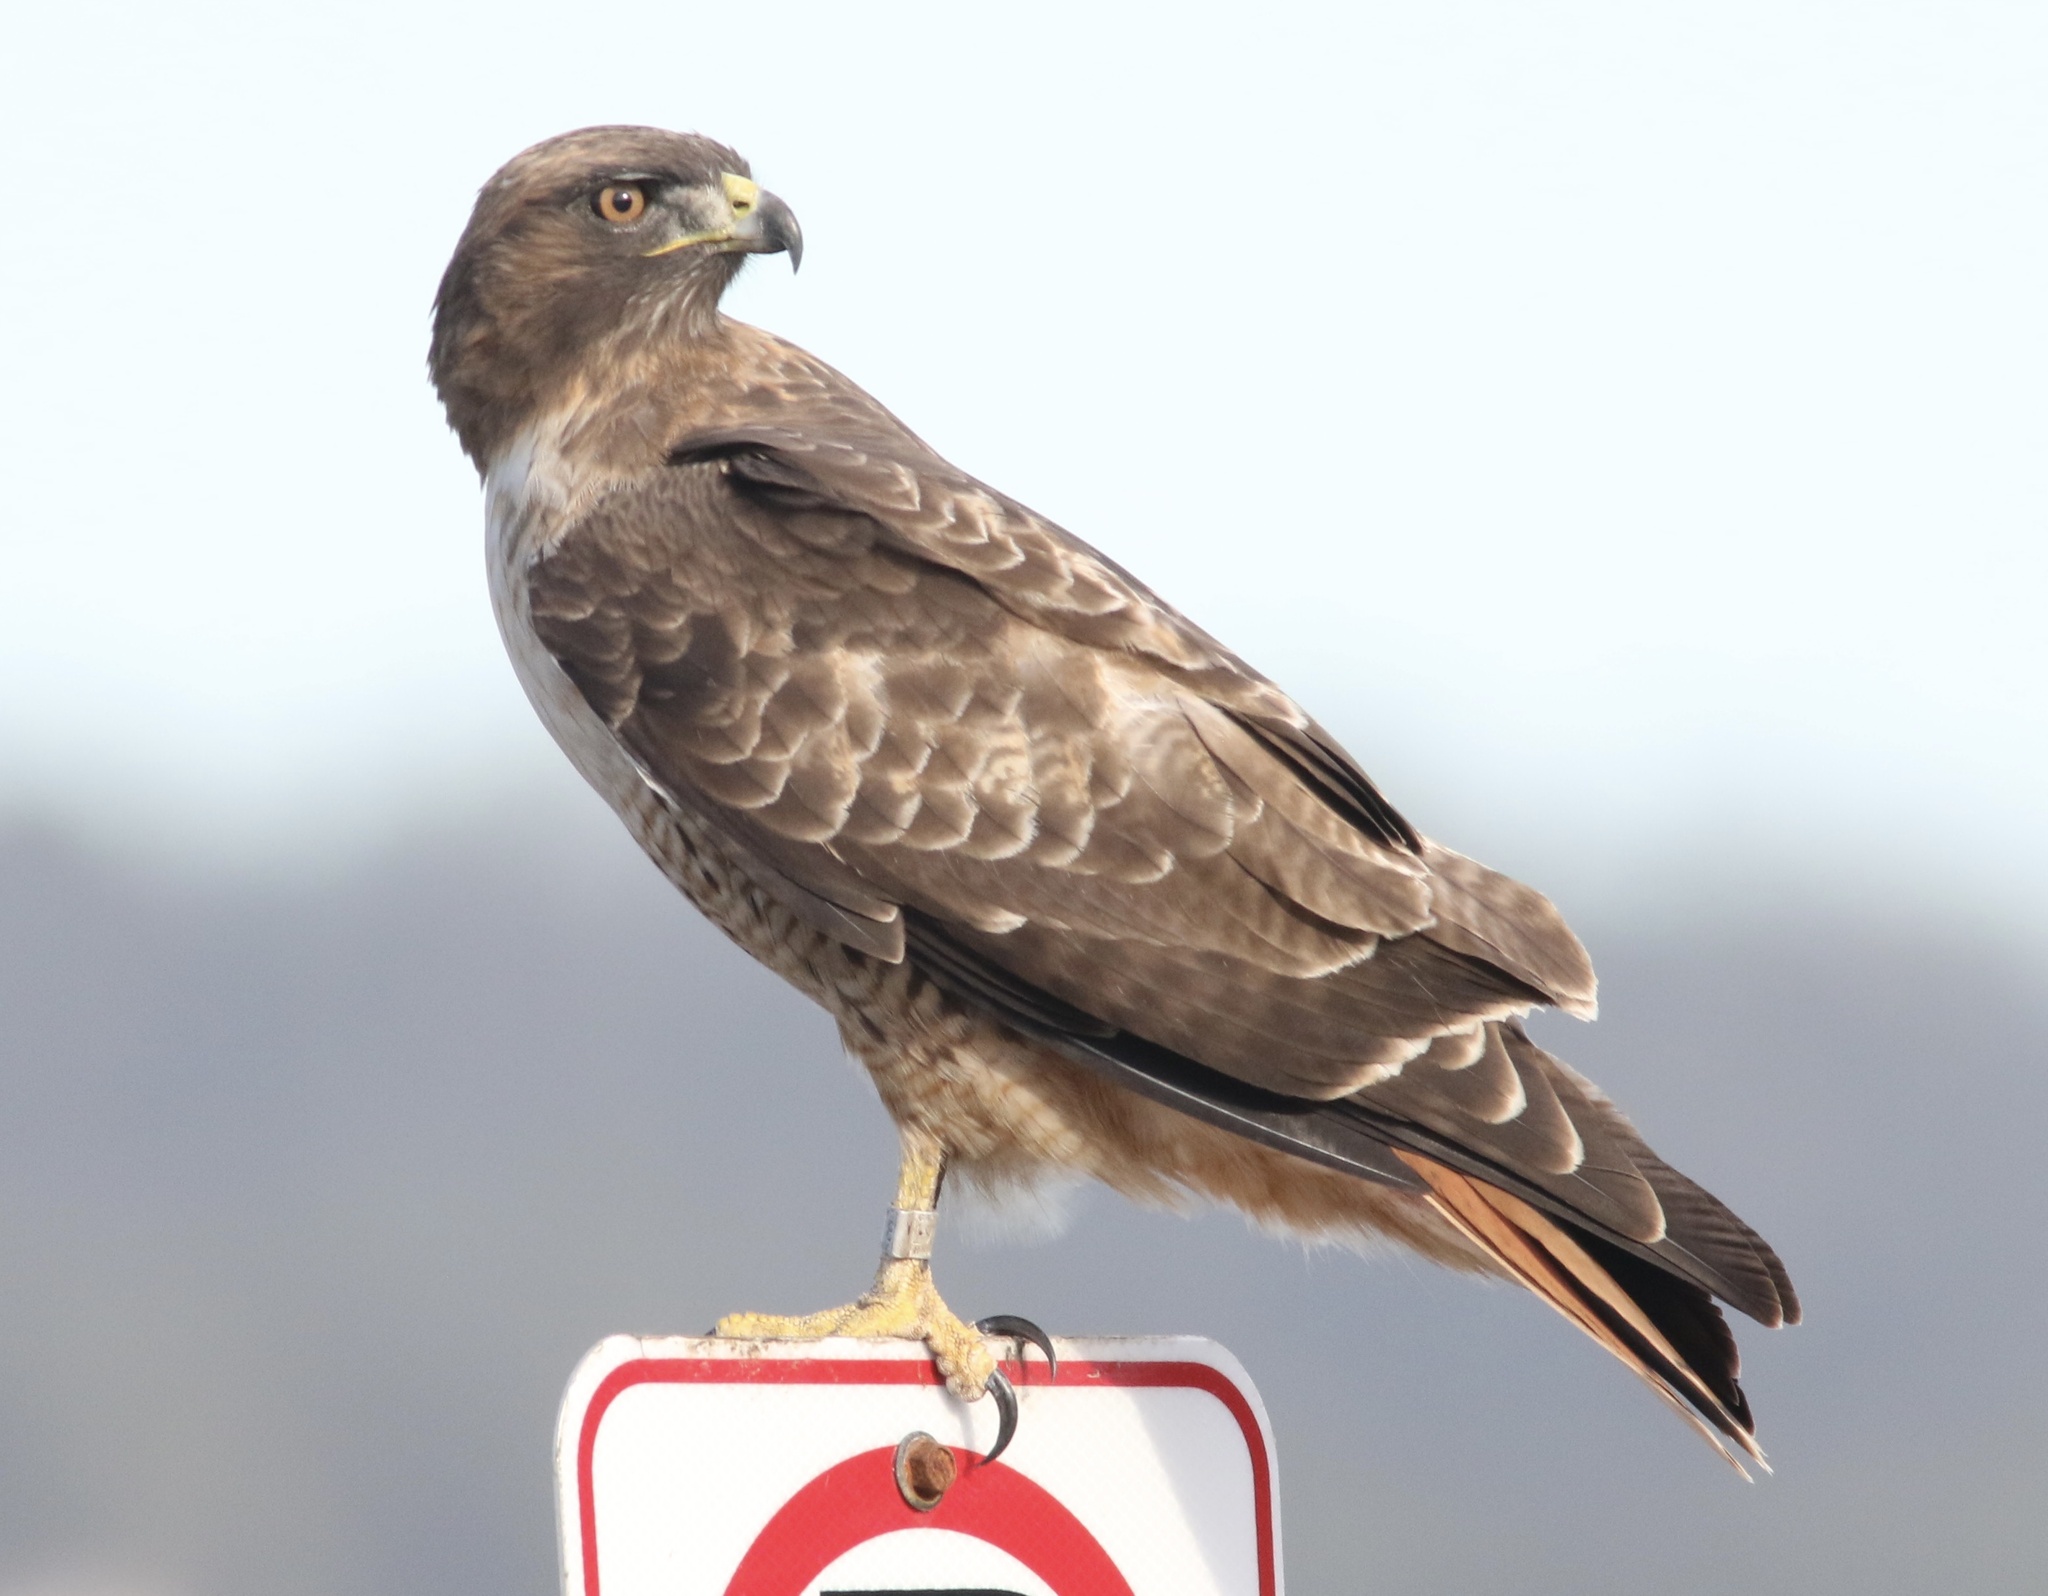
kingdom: Animalia
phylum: Chordata
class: Aves
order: Accipitriformes
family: Accipitridae
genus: Buteo
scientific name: Buteo jamaicensis
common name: Red-tailed hawk
